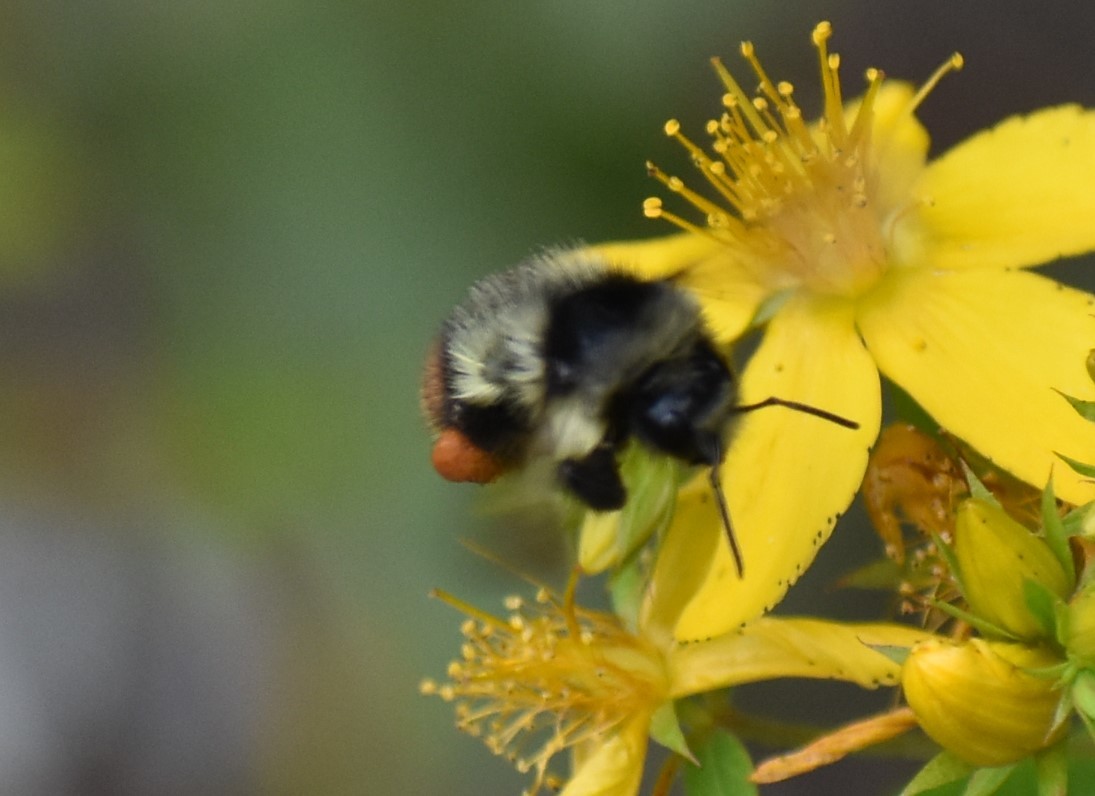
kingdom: Animalia
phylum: Arthropoda
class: Insecta
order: Hymenoptera
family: Apidae
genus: Bombus
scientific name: Bombus mixtus
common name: Fuzzy-horned bumble bee
